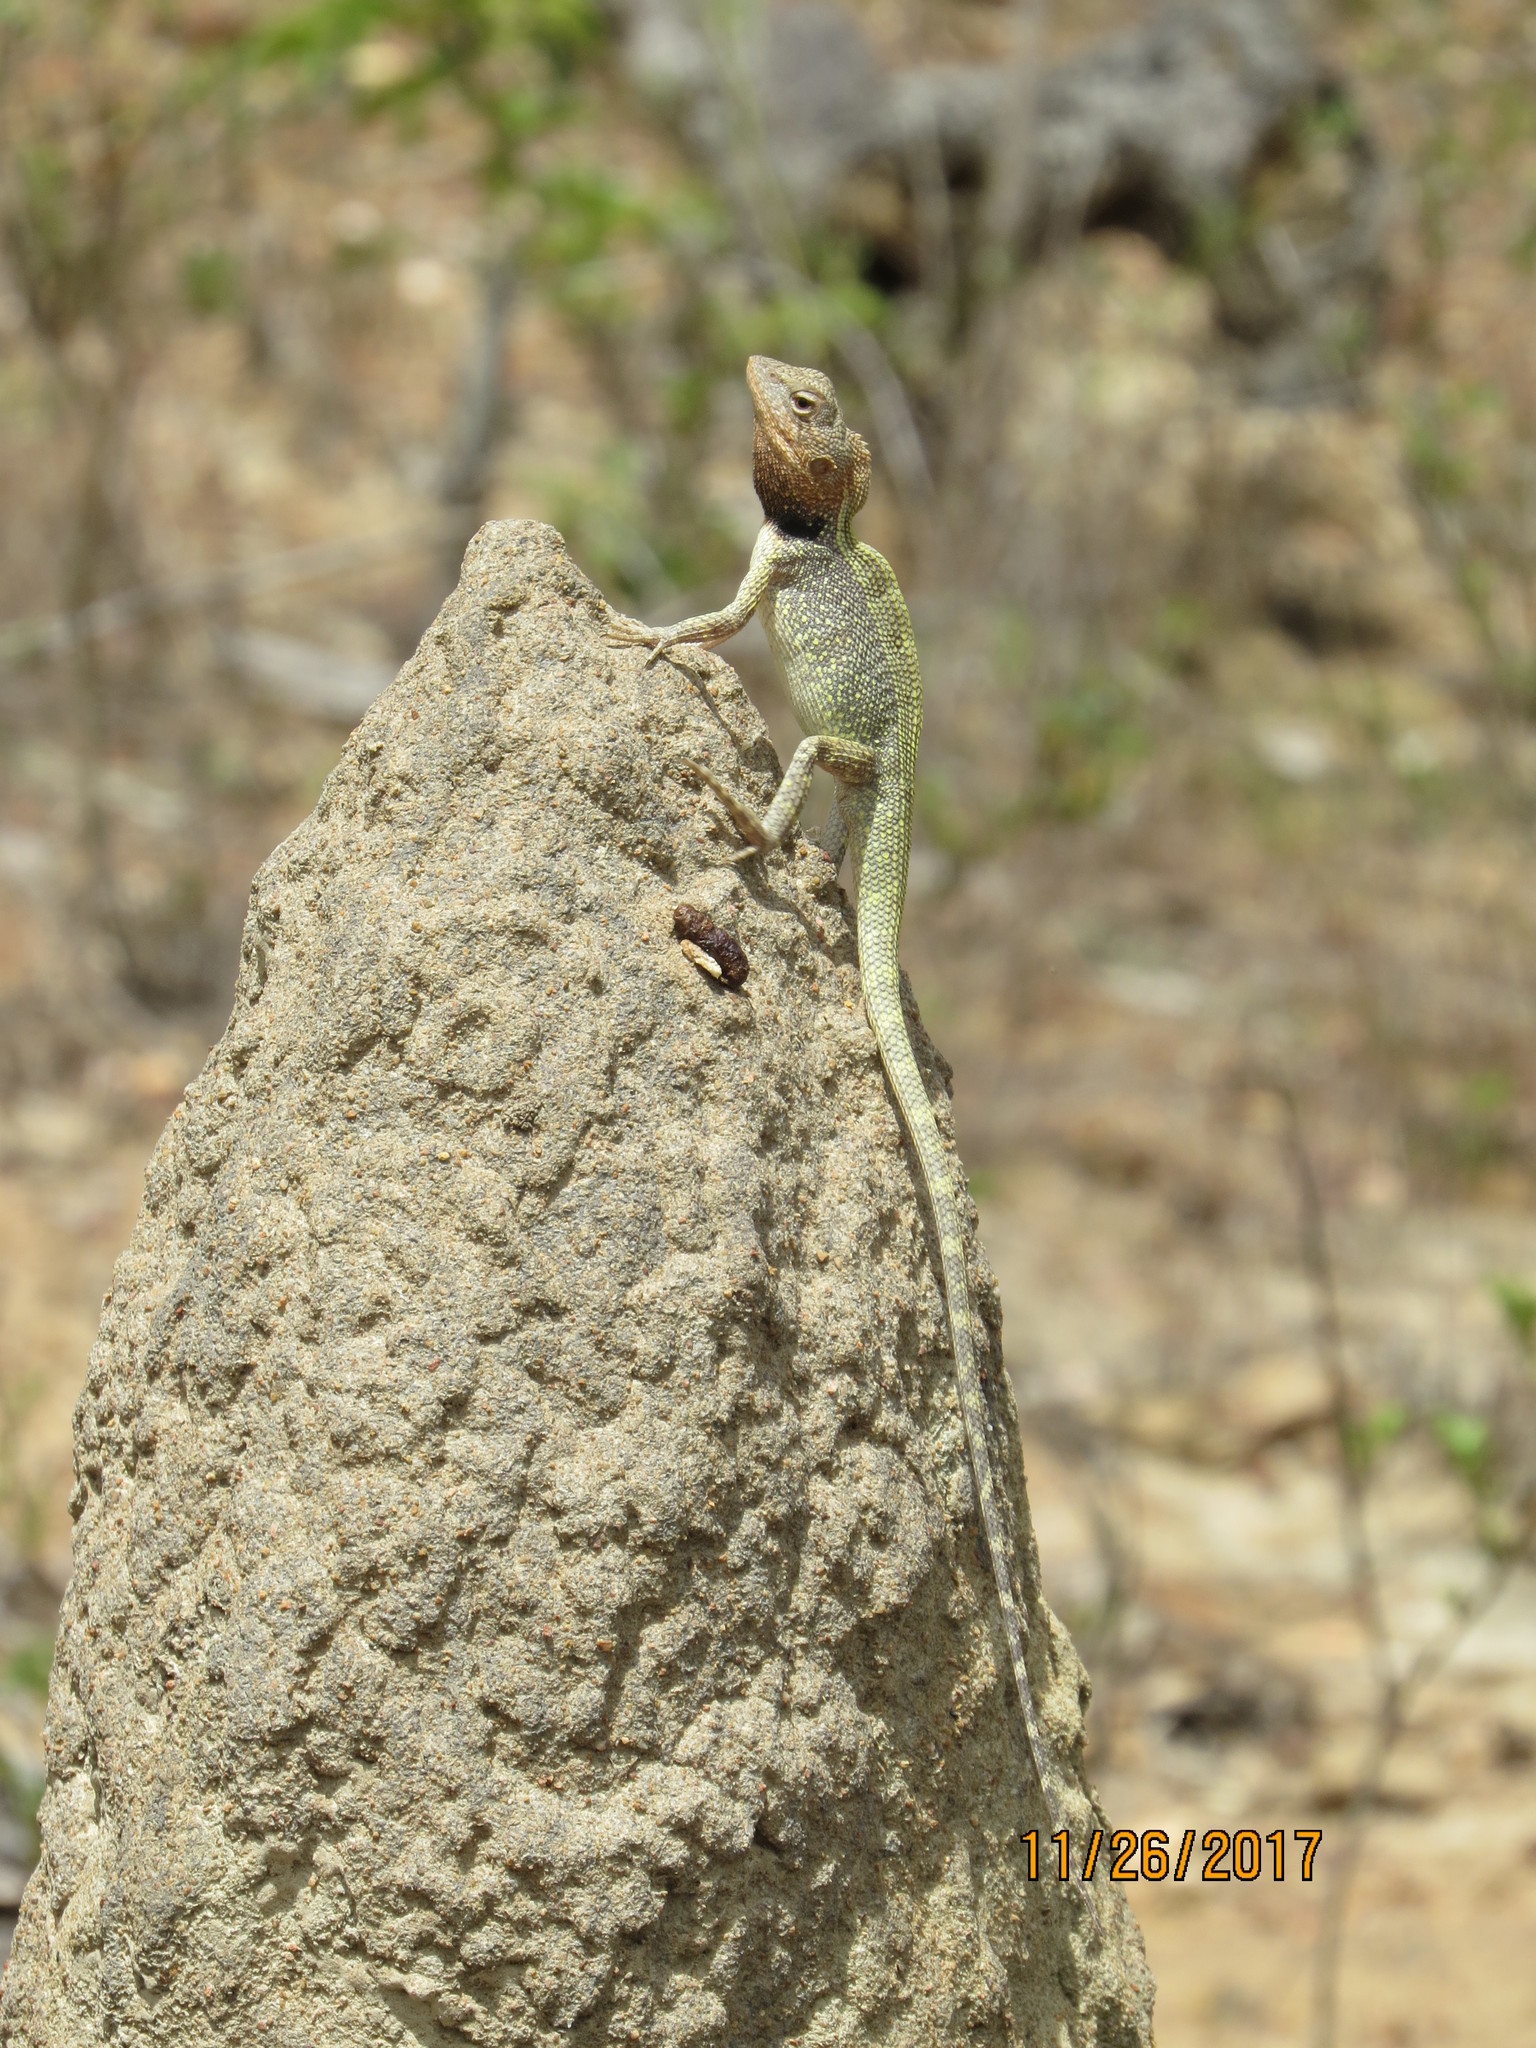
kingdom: Animalia
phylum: Chordata
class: Squamata
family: Agamidae
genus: Diporiphora
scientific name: Diporiphora jugularis
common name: Black-throated two-pored dragon
